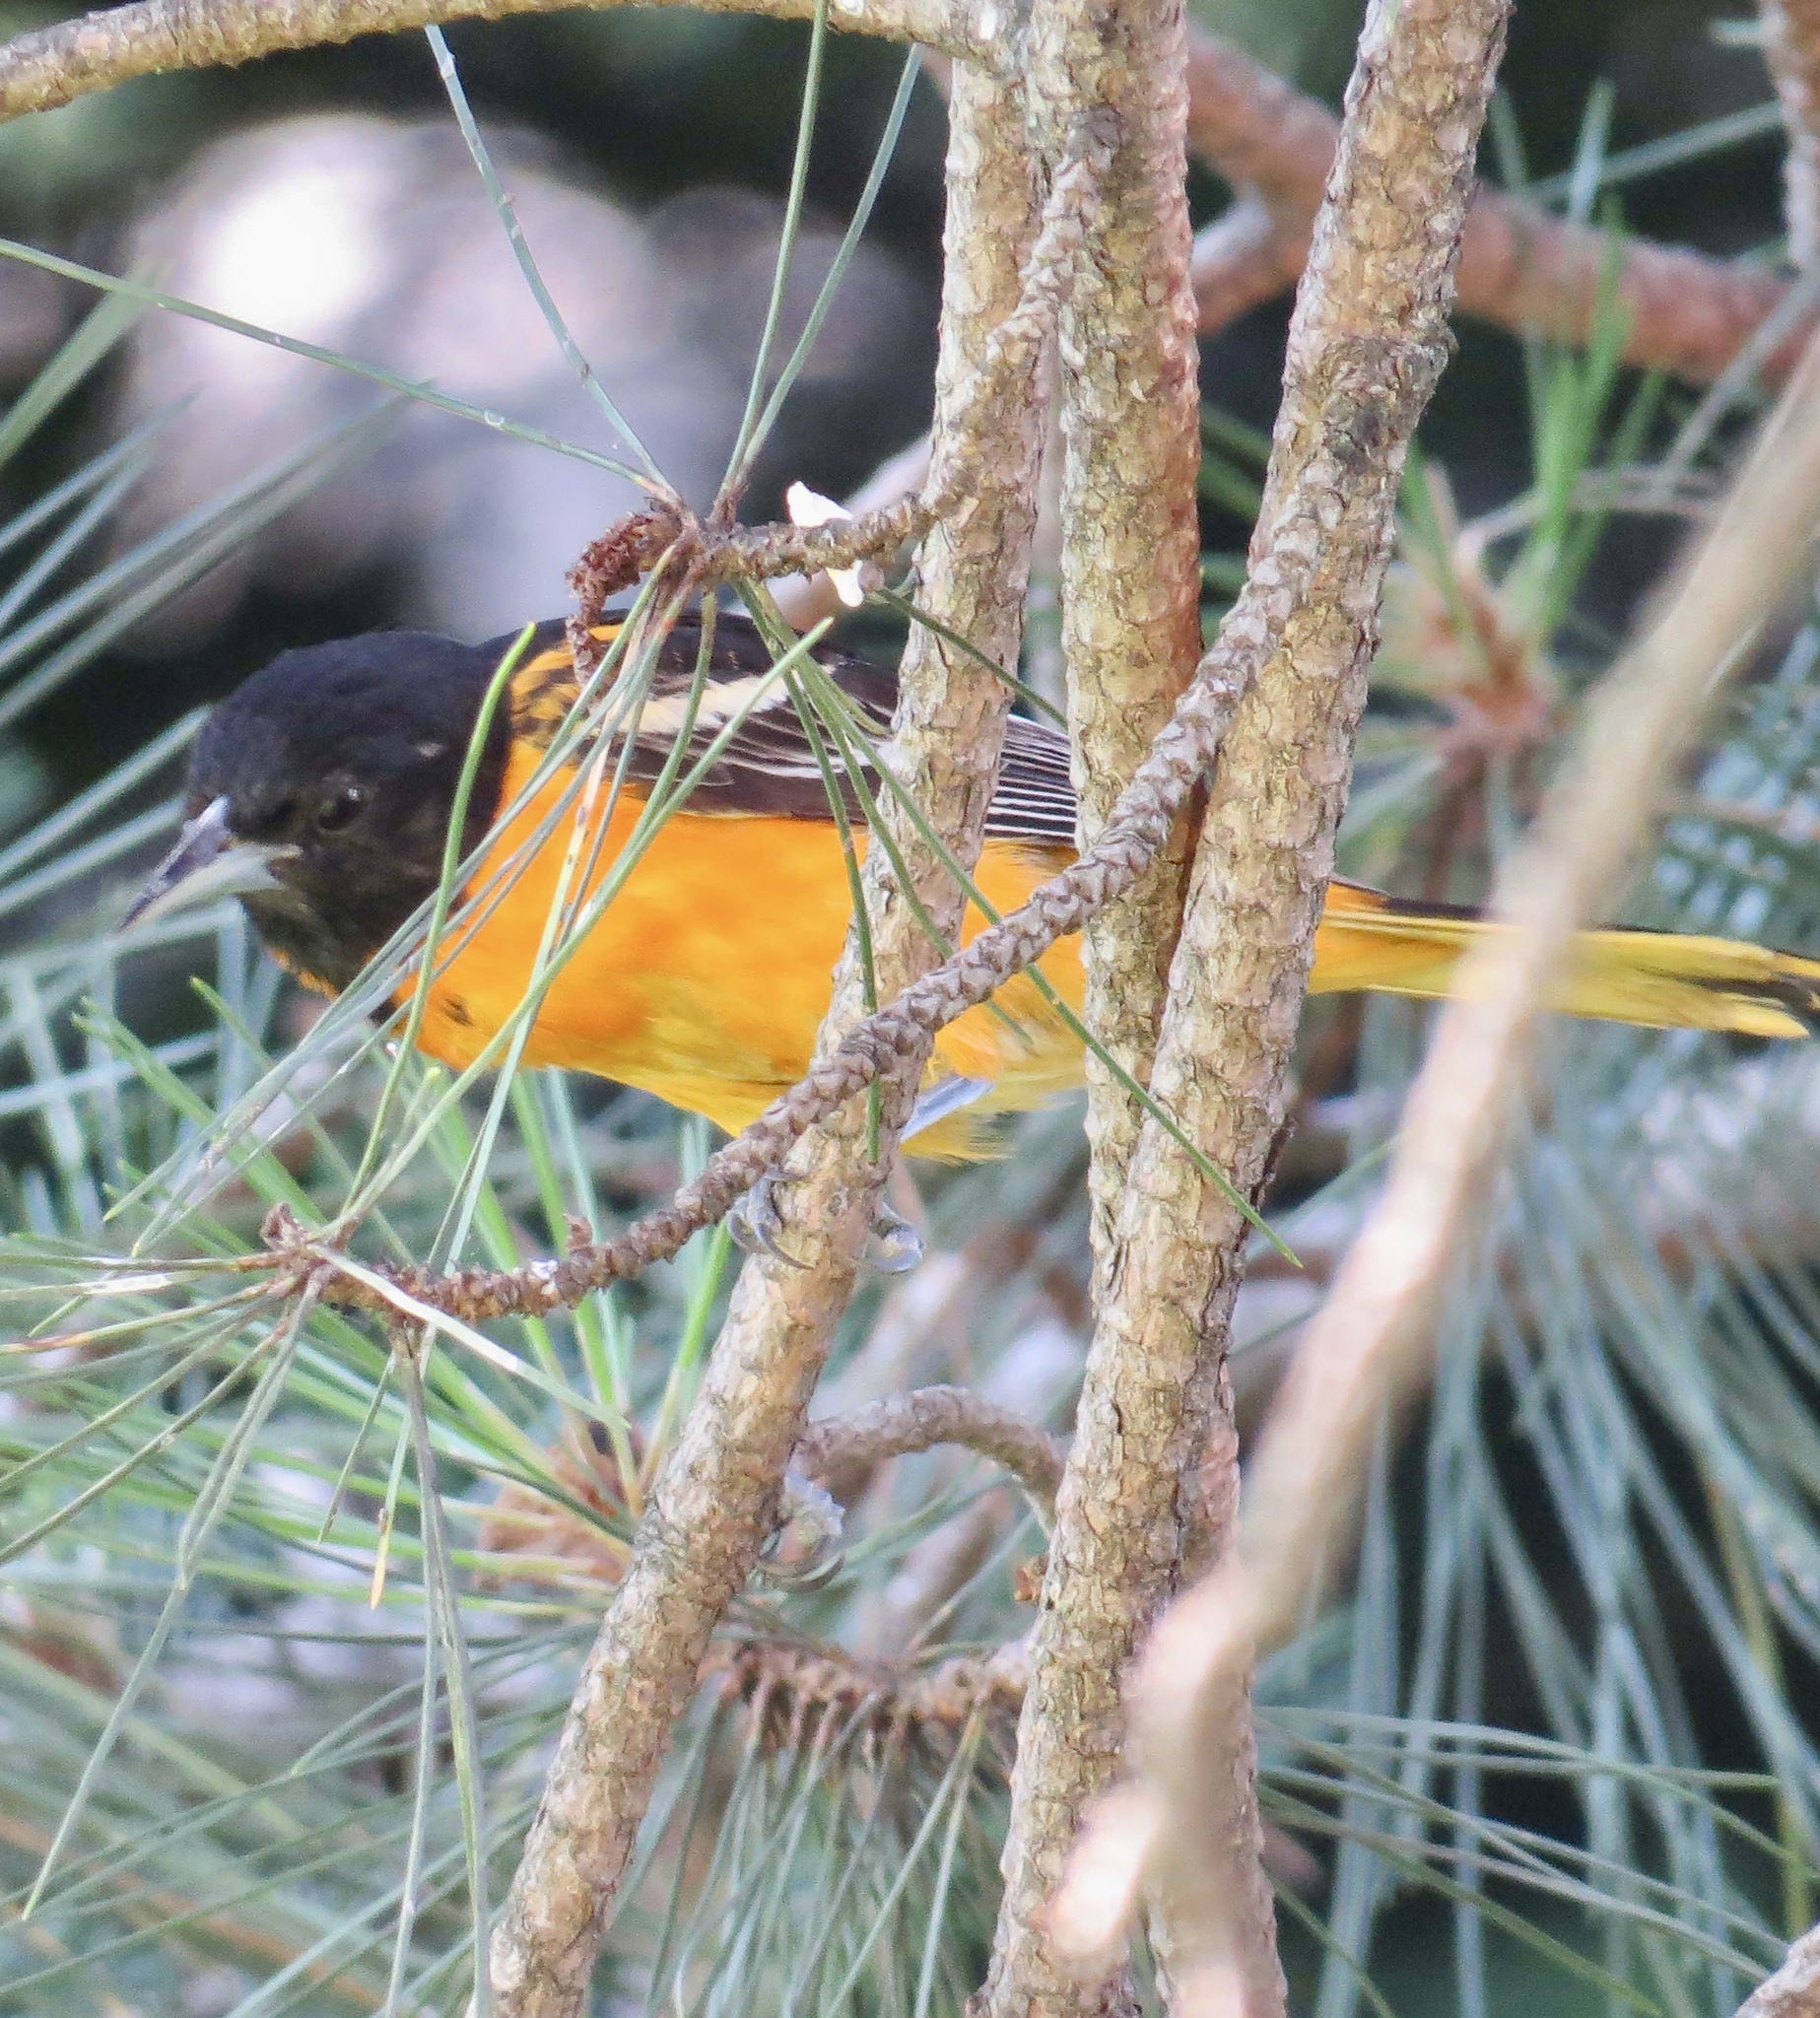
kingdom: Animalia
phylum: Chordata
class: Aves
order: Passeriformes
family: Icteridae
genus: Icterus
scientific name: Icterus galbula
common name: Baltimore oriole
